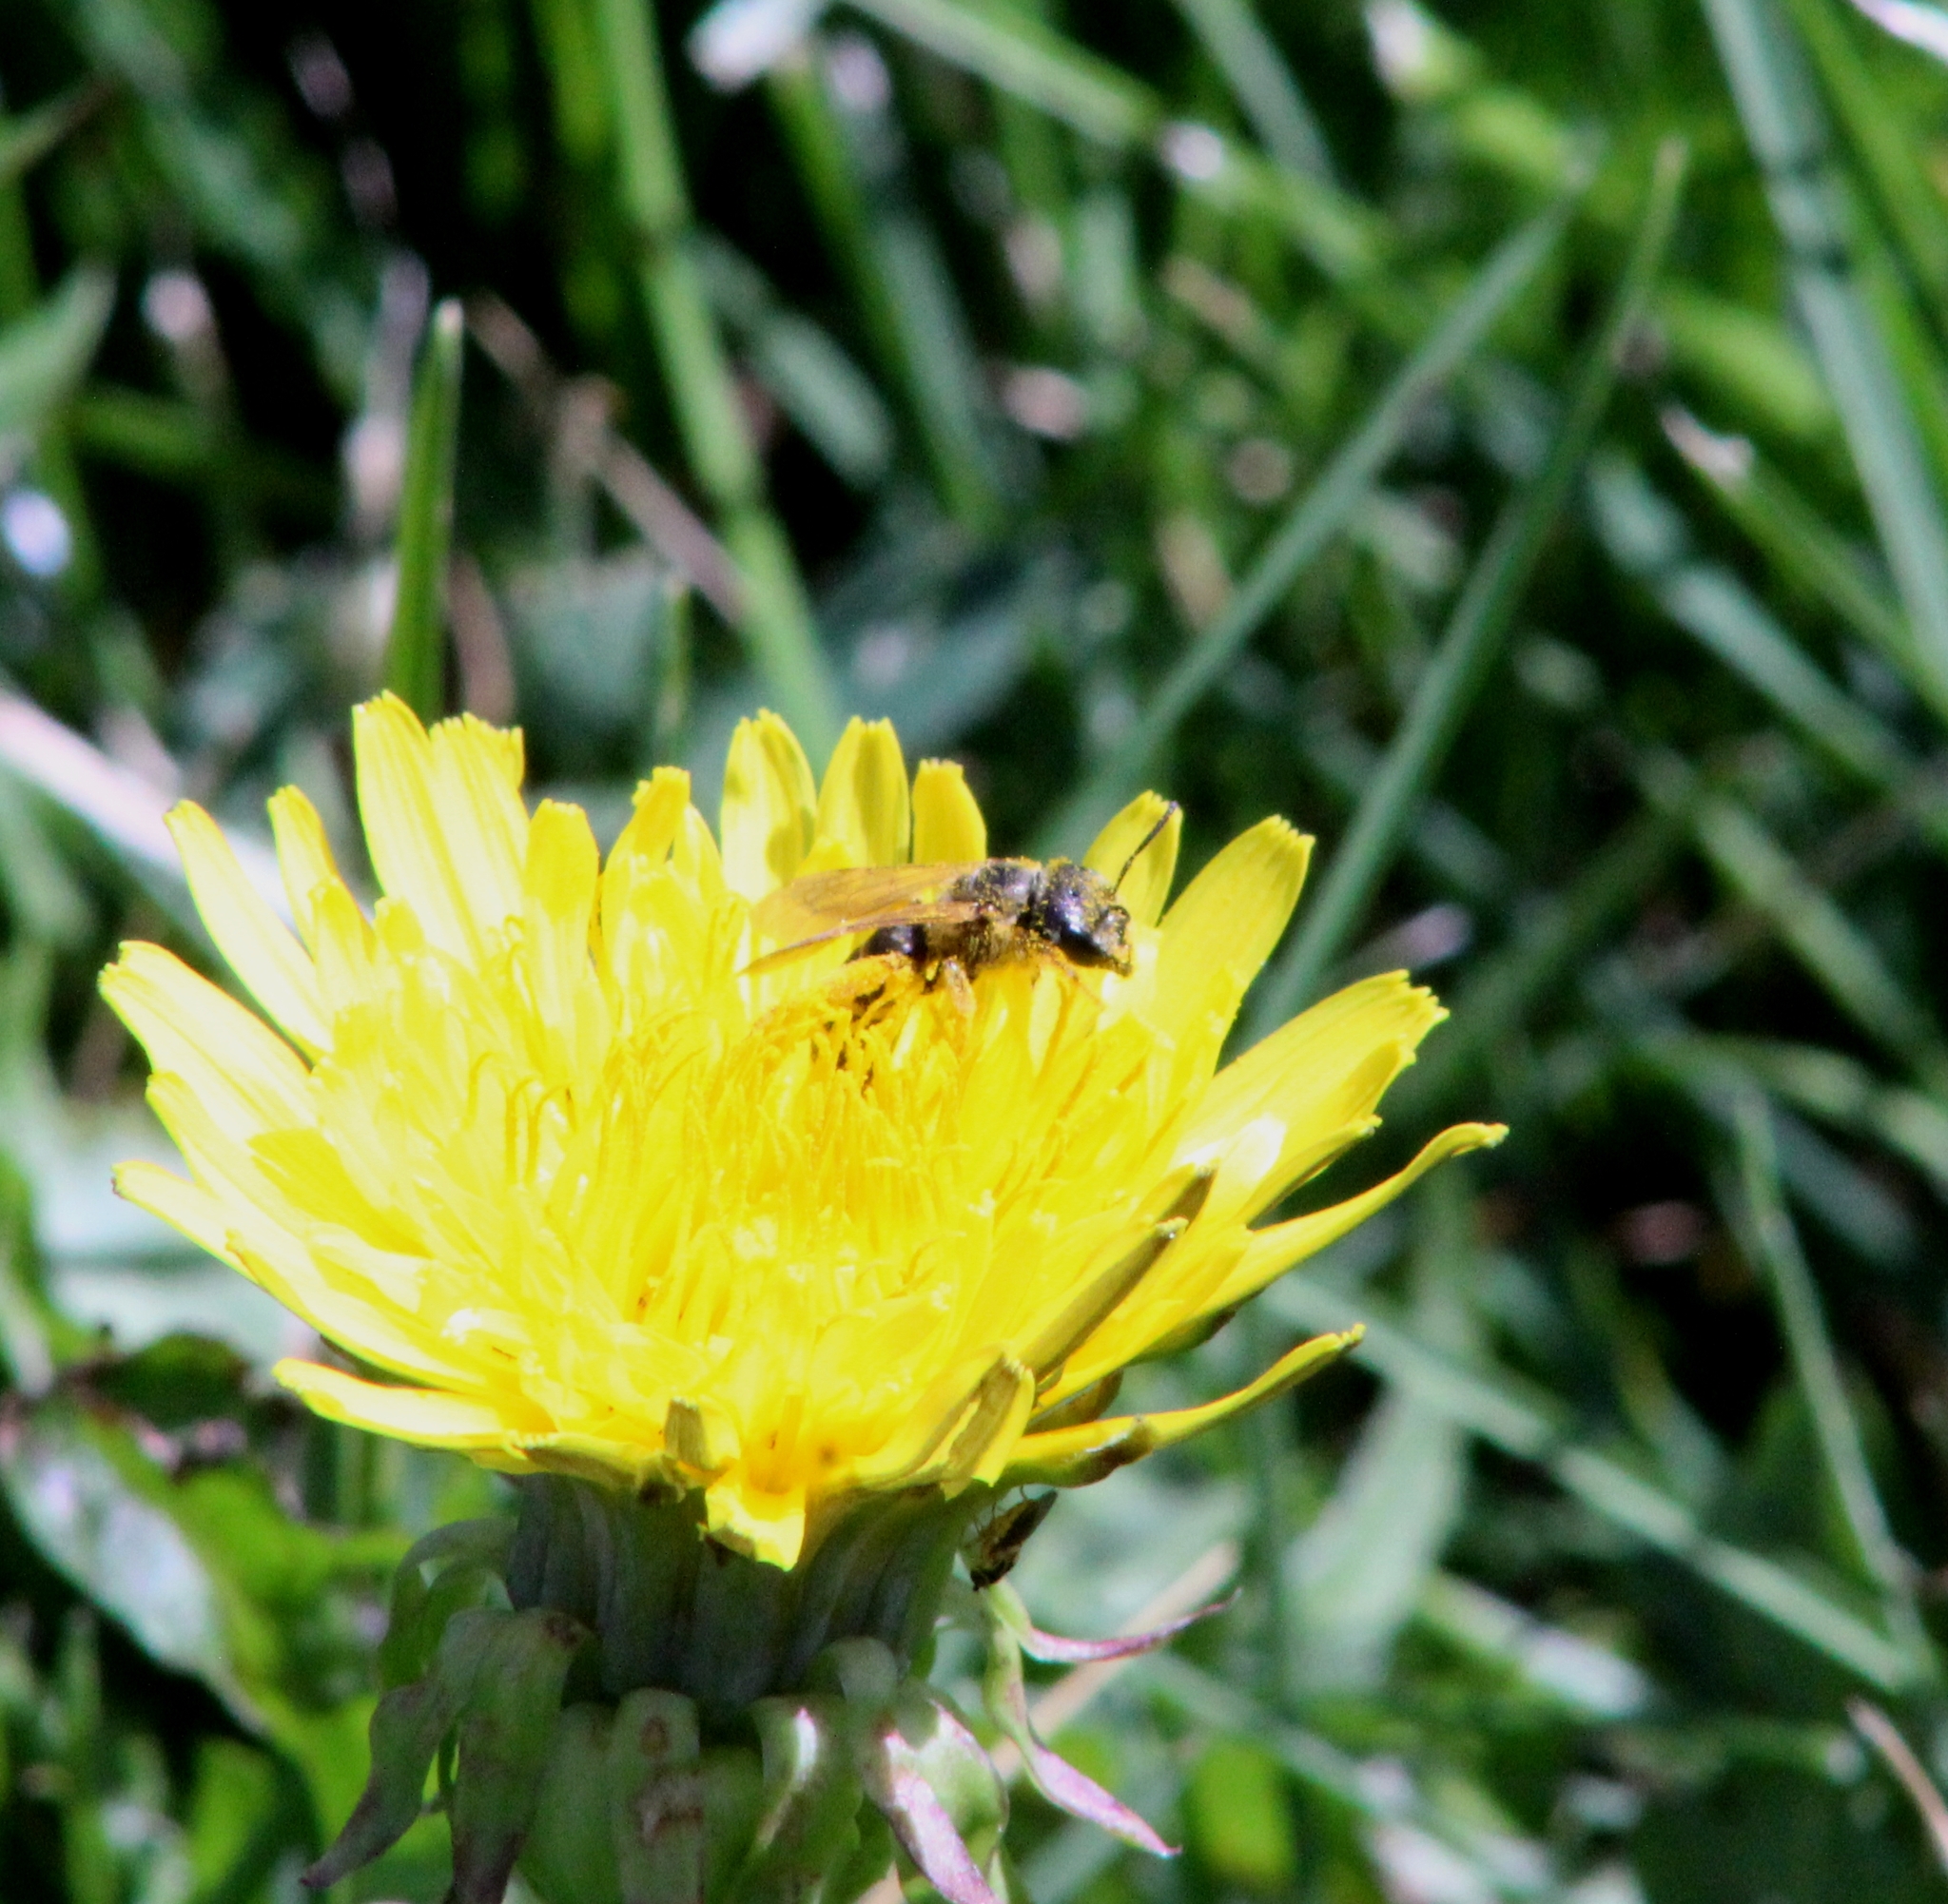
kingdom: Animalia
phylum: Arthropoda
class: Insecta
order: Hymenoptera
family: Halictidae
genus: Halictus
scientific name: Halictus ligatus
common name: Ligated furrow bee
